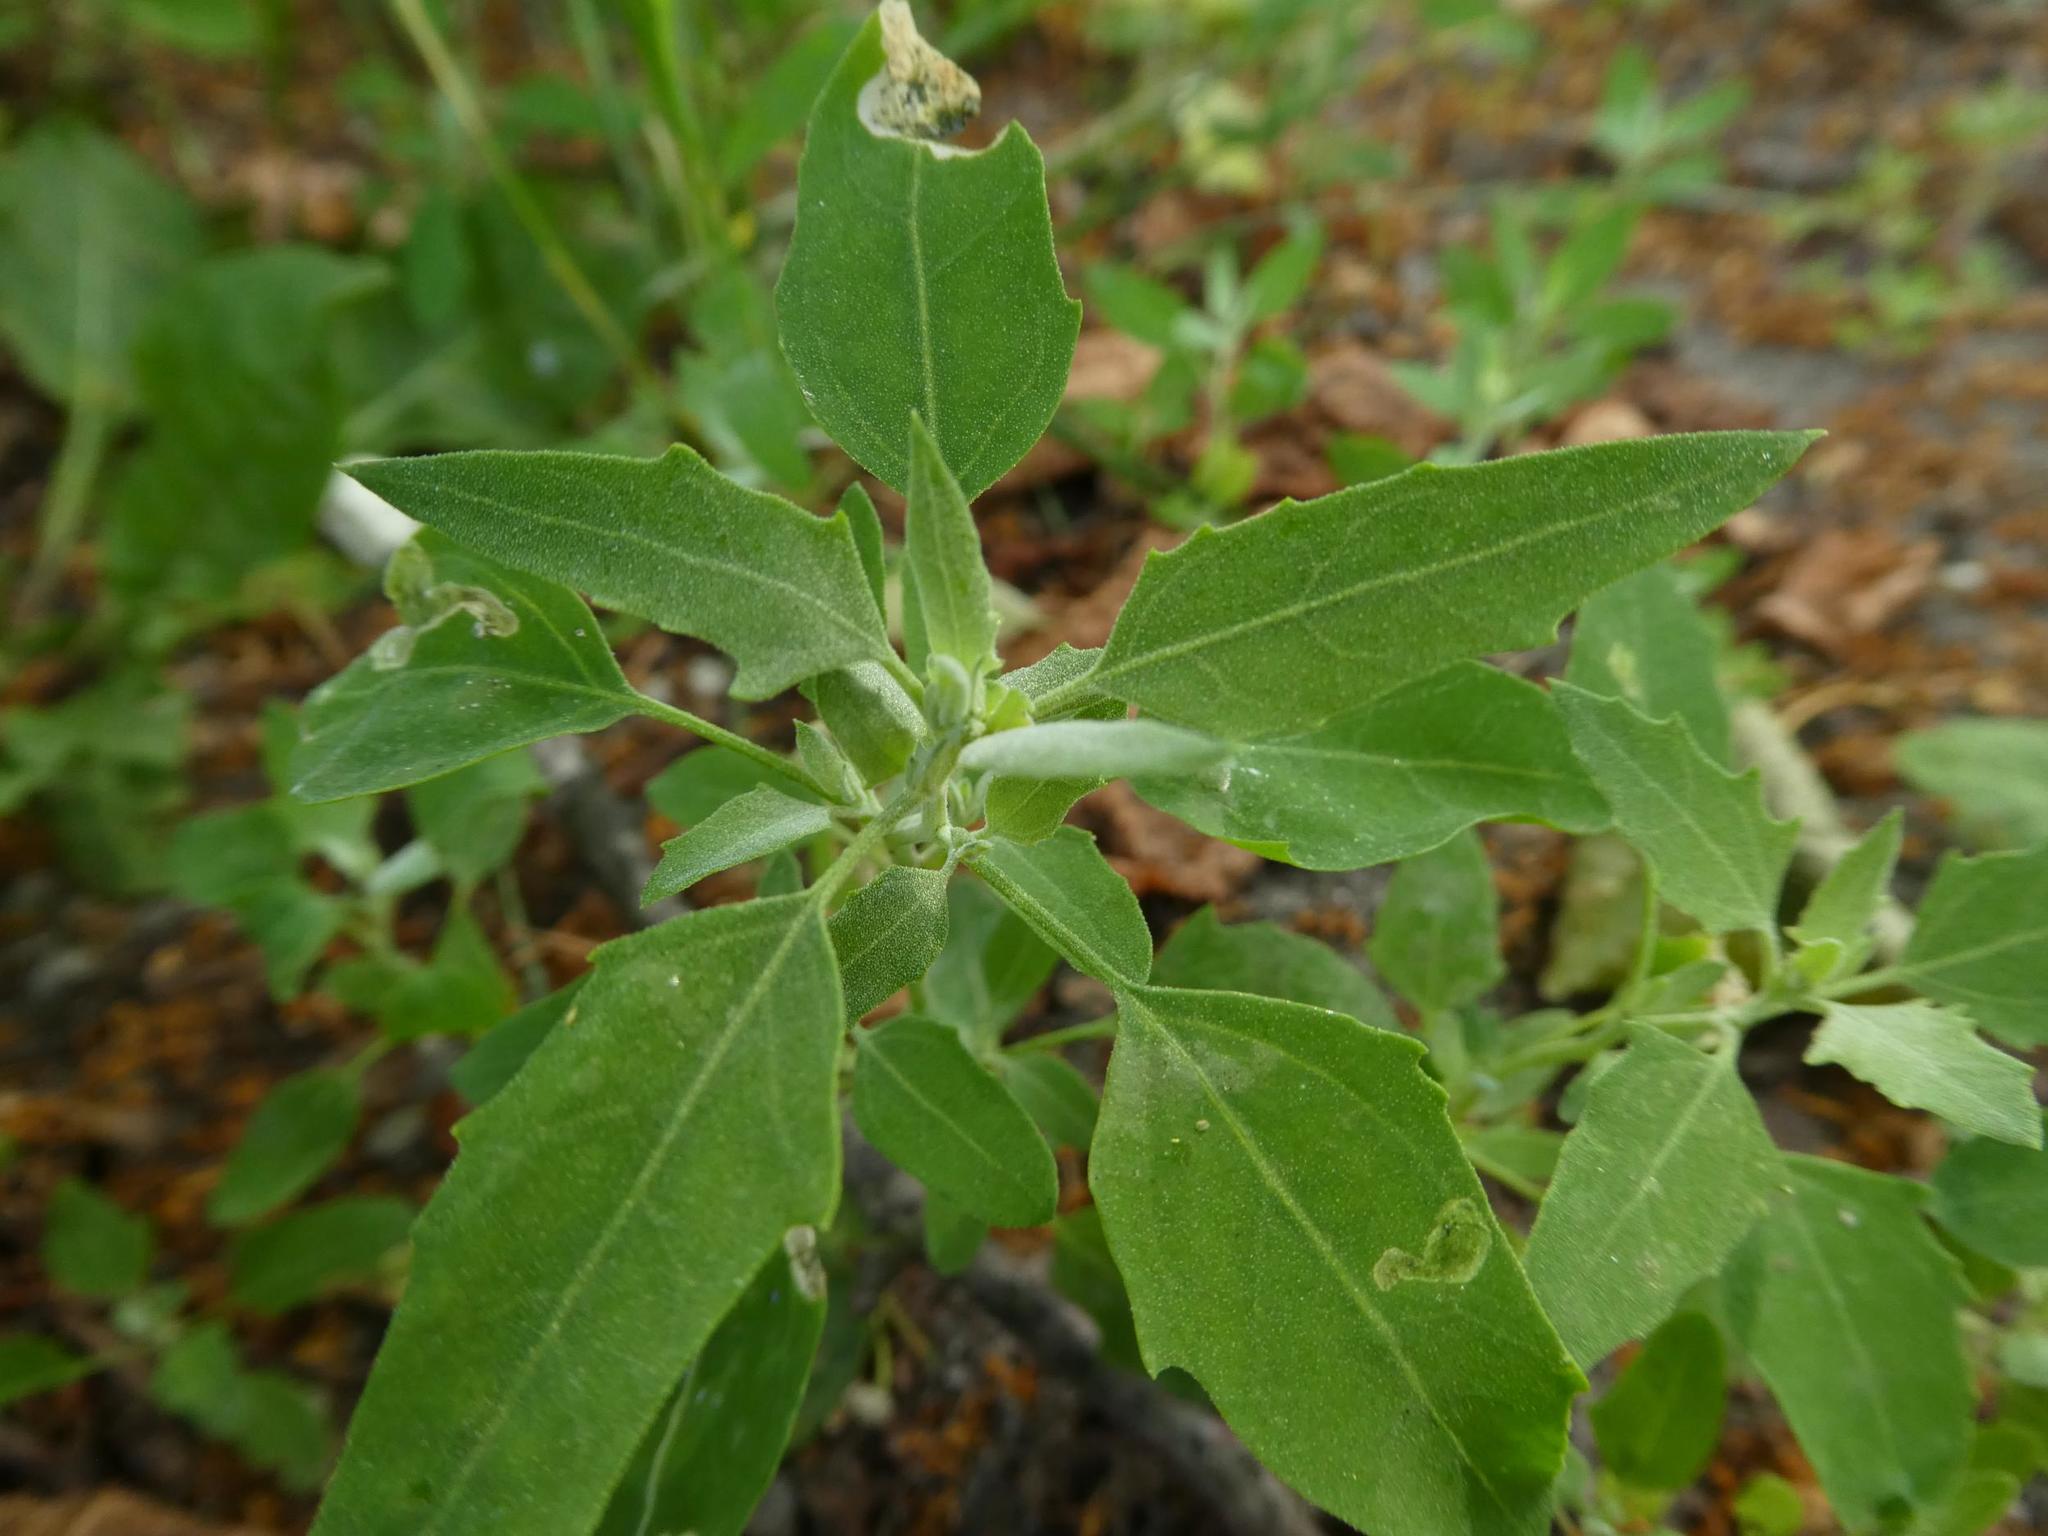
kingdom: Plantae
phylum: Tracheophyta
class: Magnoliopsida
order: Caryophyllales
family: Amaranthaceae
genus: Chenopodium
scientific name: Chenopodium album
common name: Fat-hen
